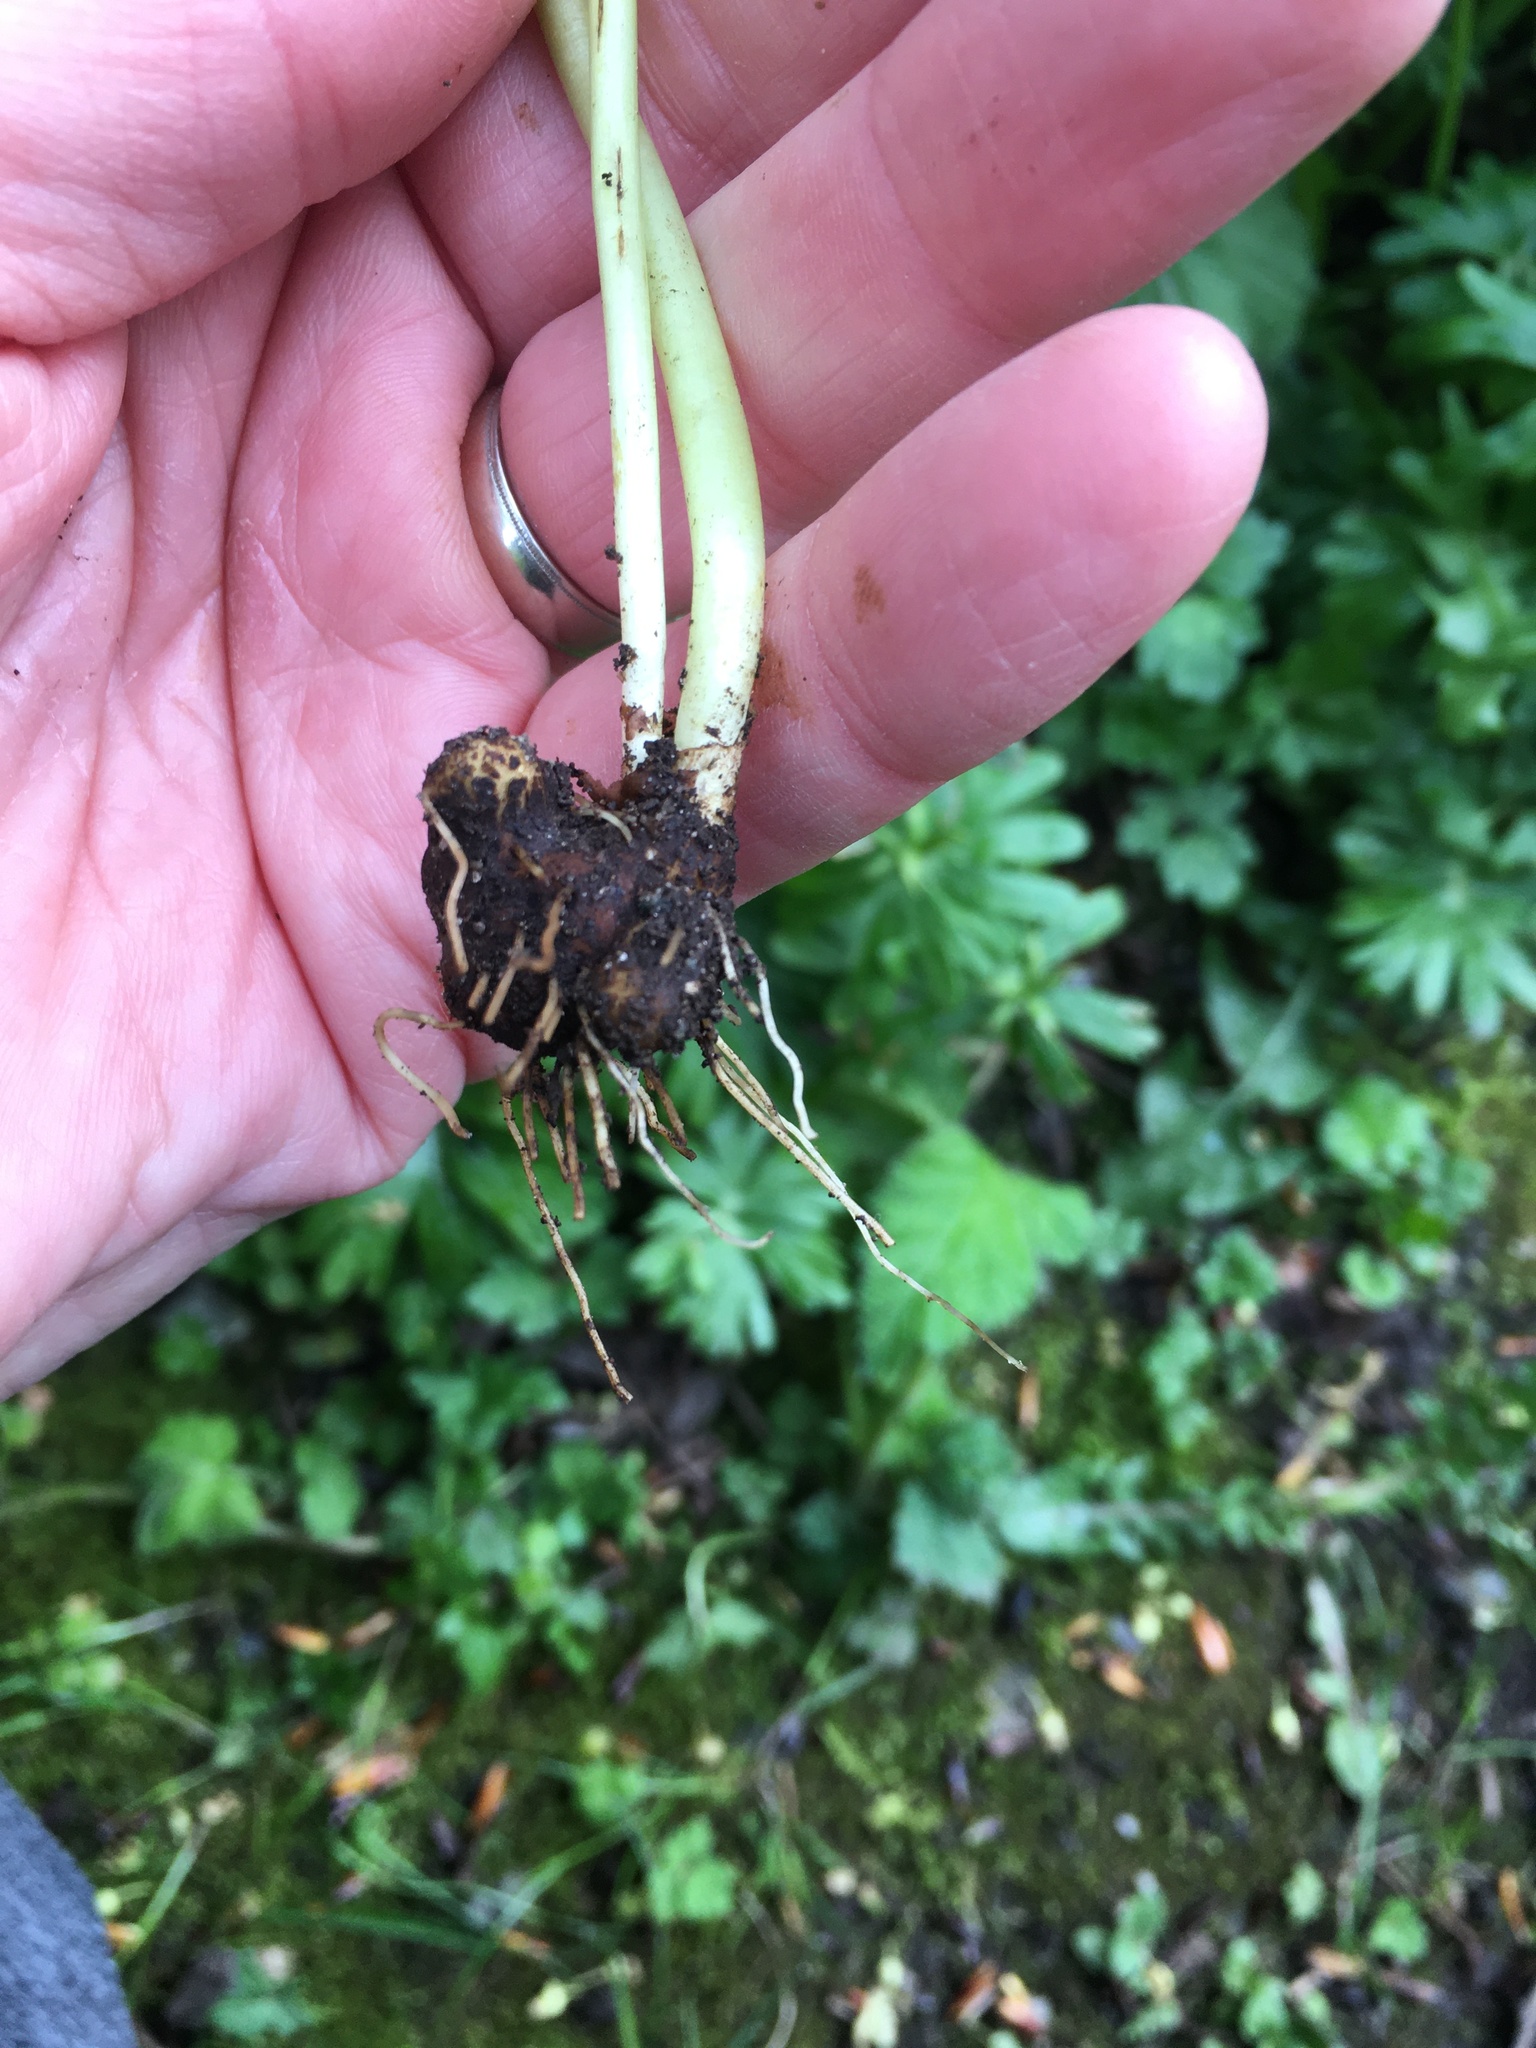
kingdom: Plantae
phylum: Tracheophyta
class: Magnoliopsida
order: Ranunculales
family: Ranunculaceae
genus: Eranthis
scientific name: Eranthis hyemalis
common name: Winter aconite
